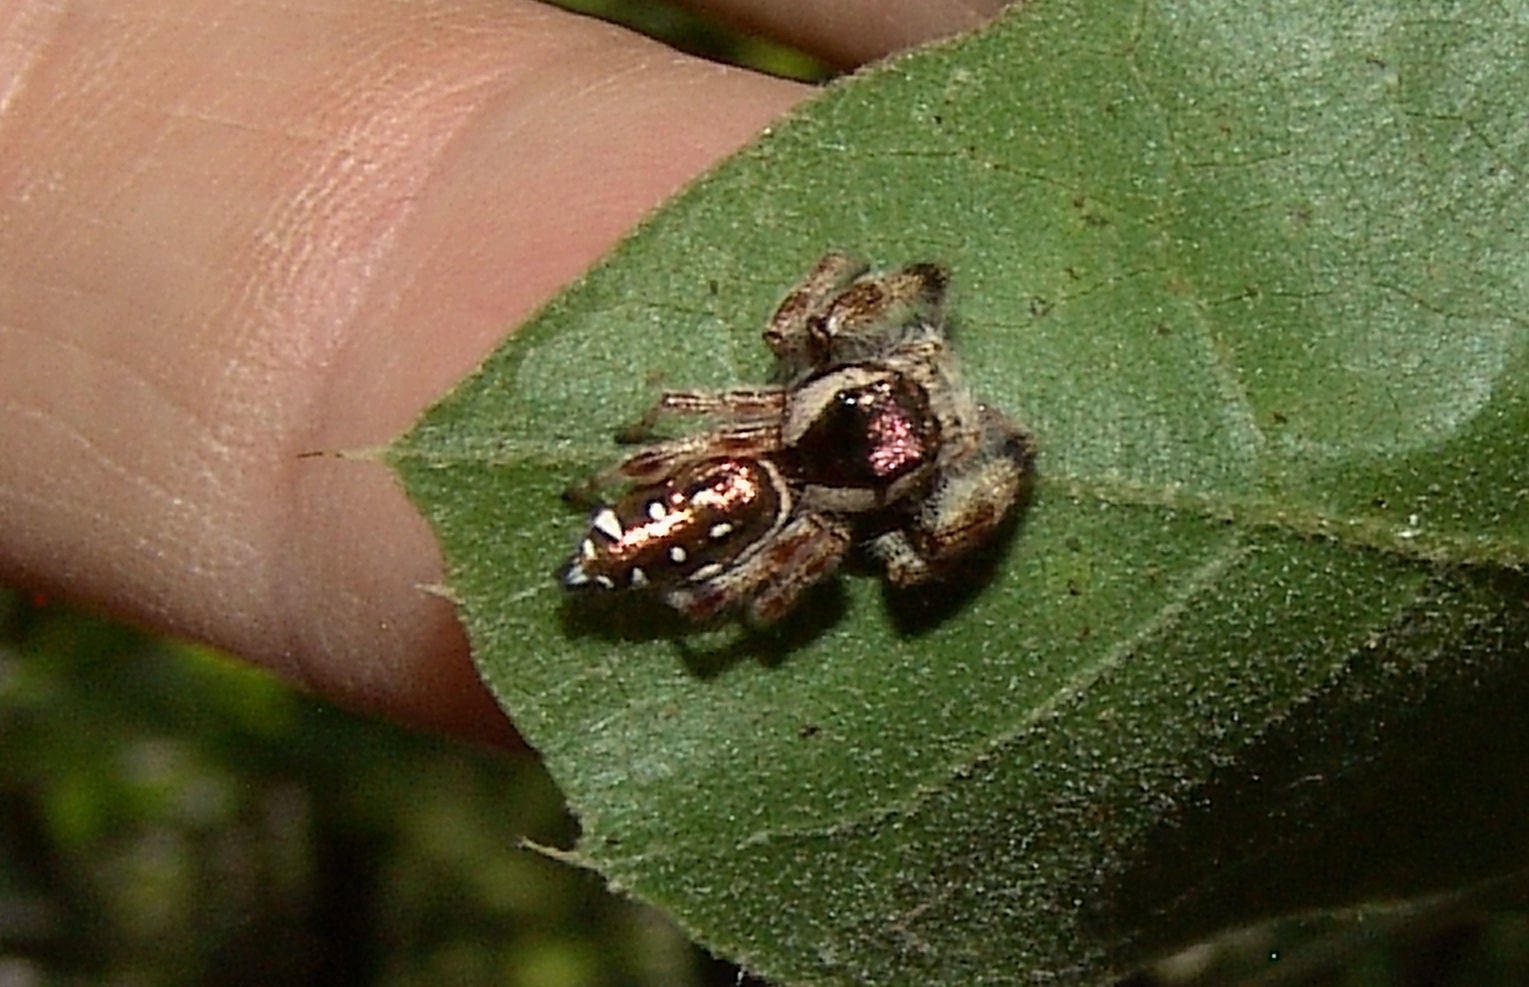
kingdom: Animalia
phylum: Arthropoda
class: Arachnida
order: Araneae
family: Salticidae
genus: Paraphidippus
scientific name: Paraphidippus aurantius
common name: Jumping spiders
